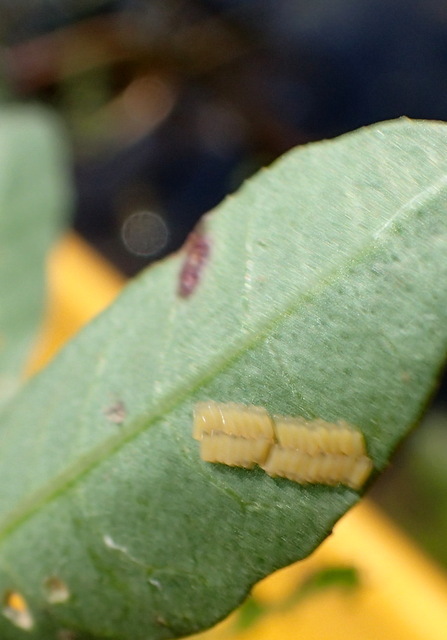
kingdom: Animalia
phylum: Arthropoda
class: Insecta
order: Coleoptera
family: Chrysomelidae
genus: Agasicles
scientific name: Agasicles hygrophila
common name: Alligatorweed flea beetle
